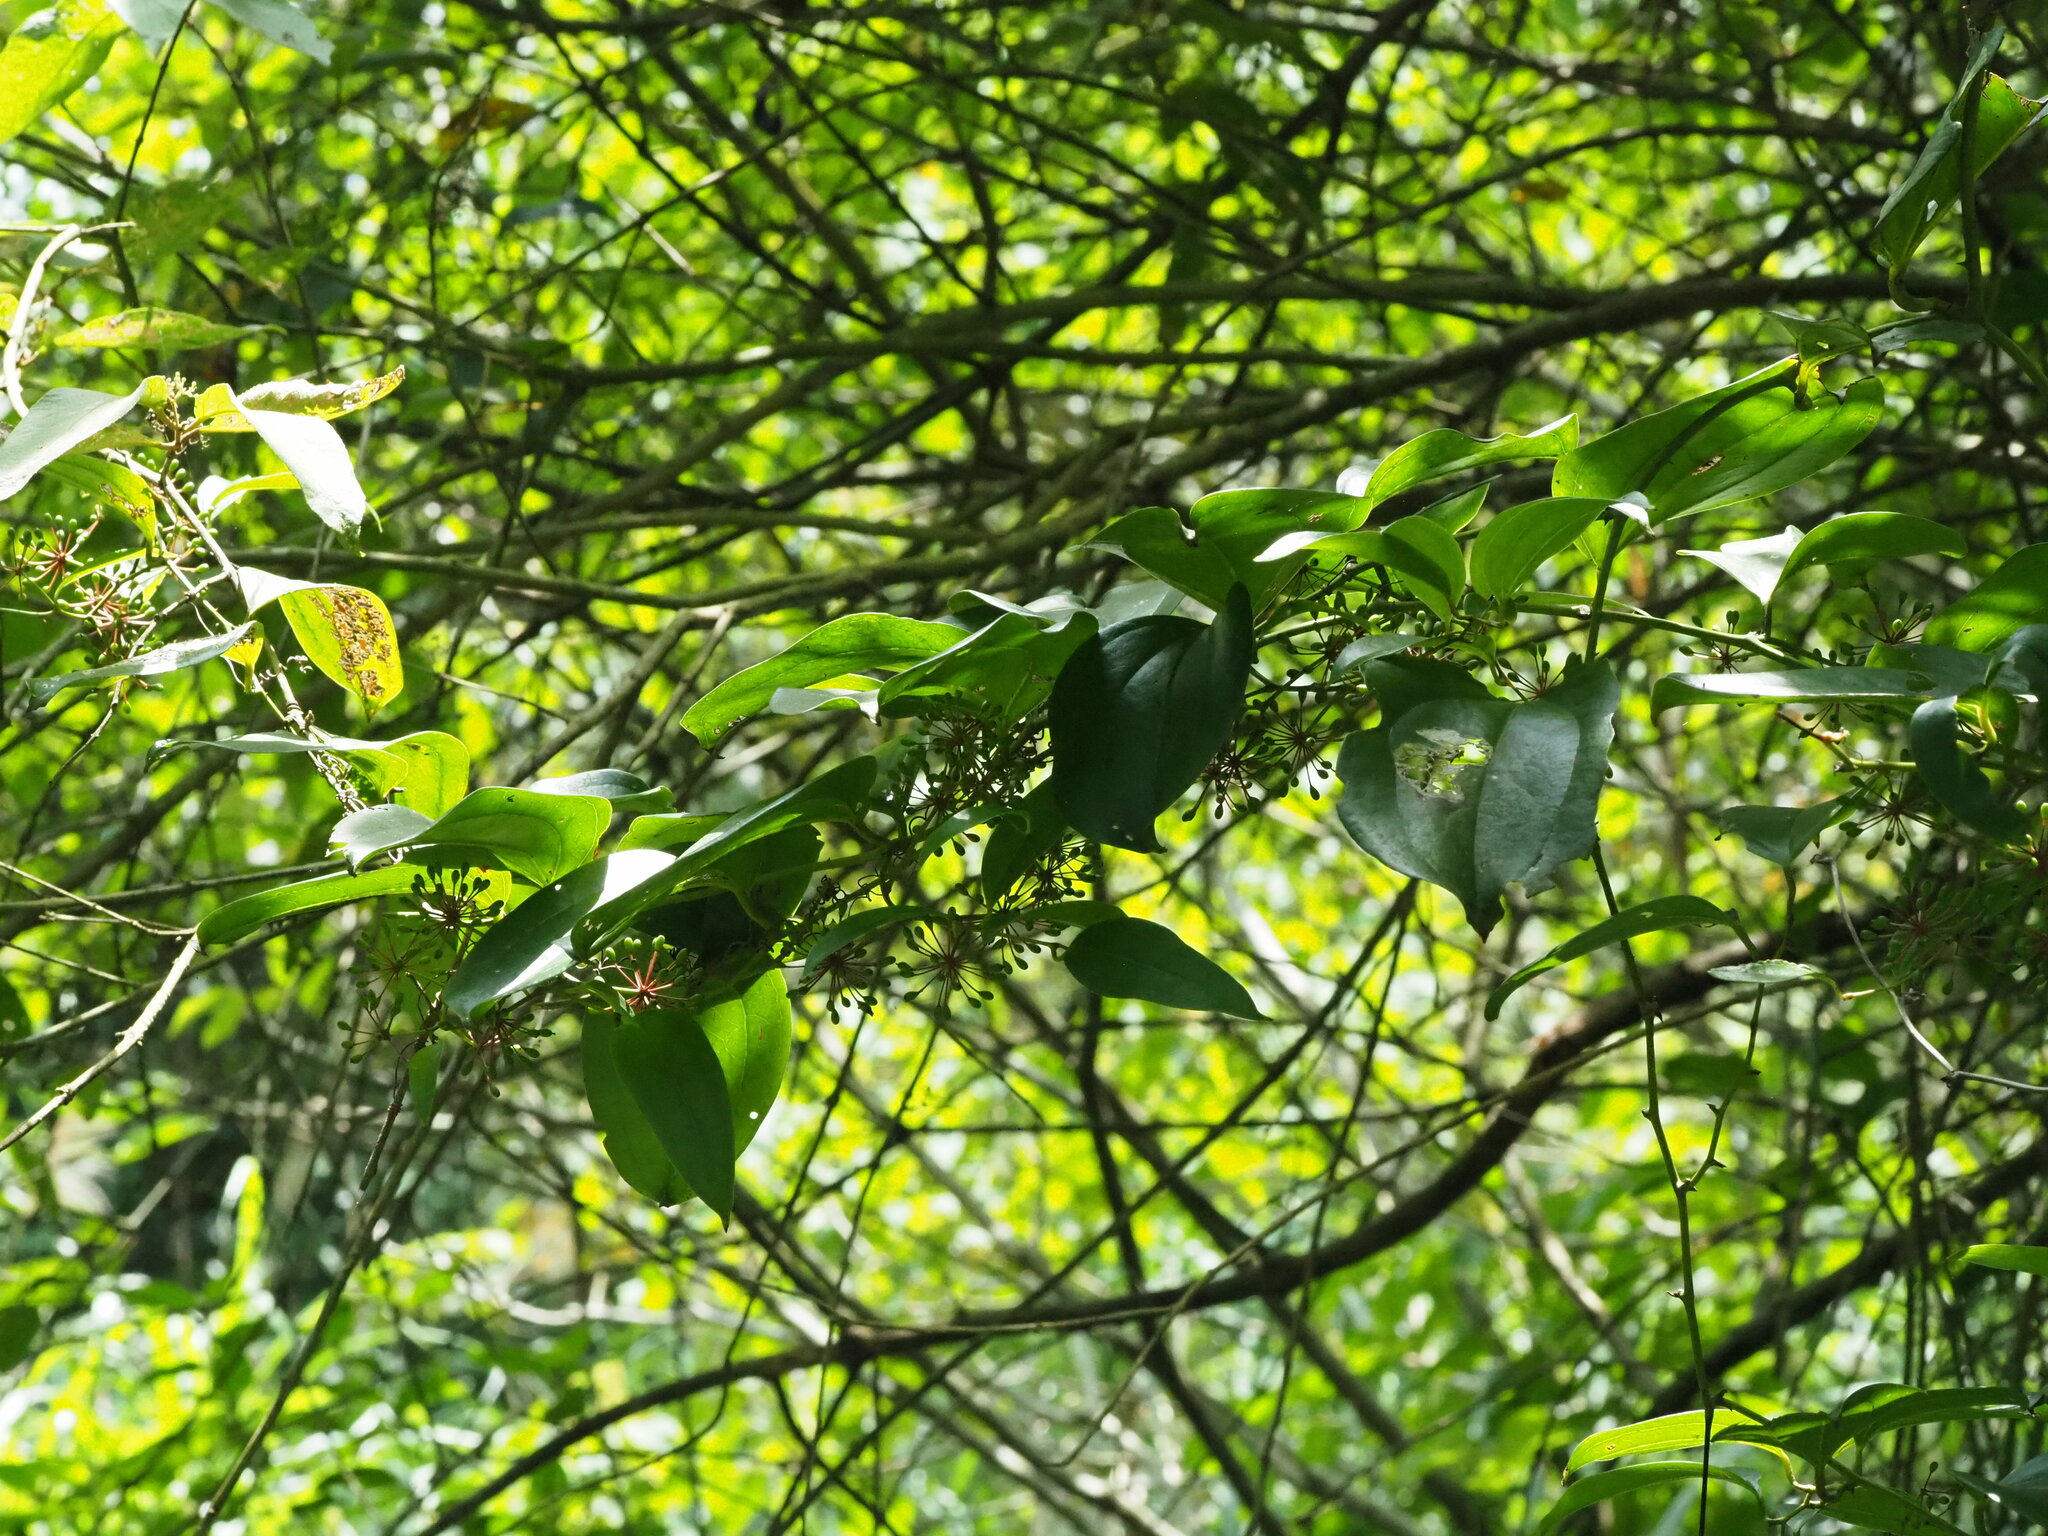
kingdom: Plantae
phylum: Tracheophyta
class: Liliopsida
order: Liliales
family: Smilacaceae
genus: Smilax
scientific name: Smilax bracteata
